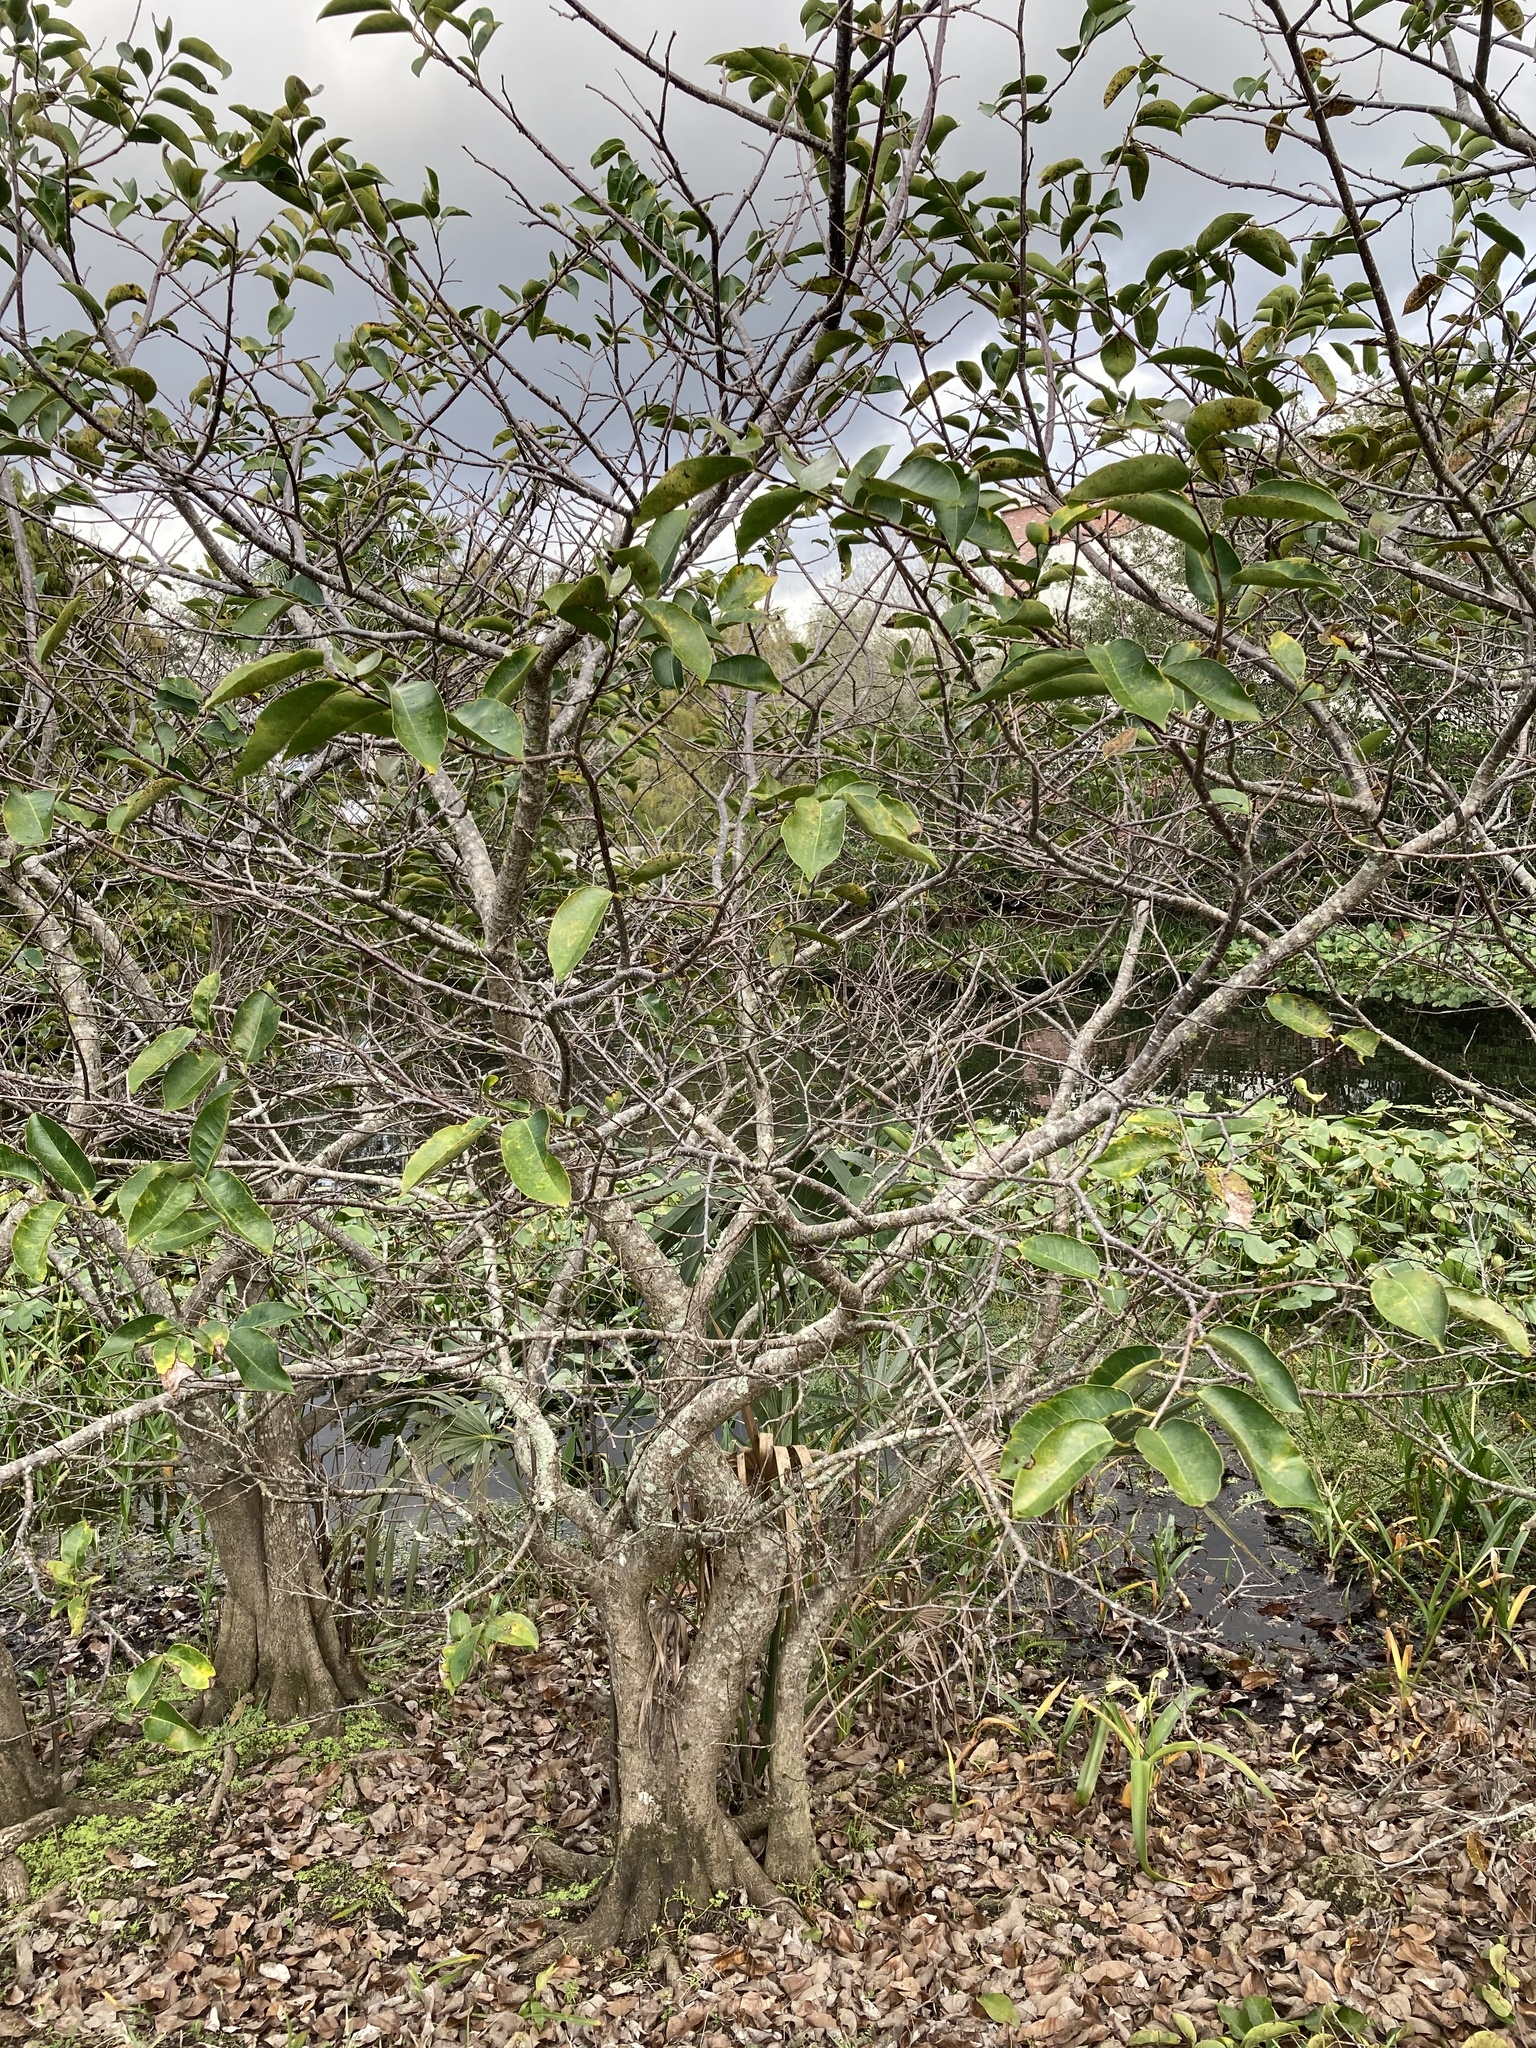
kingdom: Plantae
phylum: Tracheophyta
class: Magnoliopsida
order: Magnoliales
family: Annonaceae
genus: Annona
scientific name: Annona glabra
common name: Monkey apple
